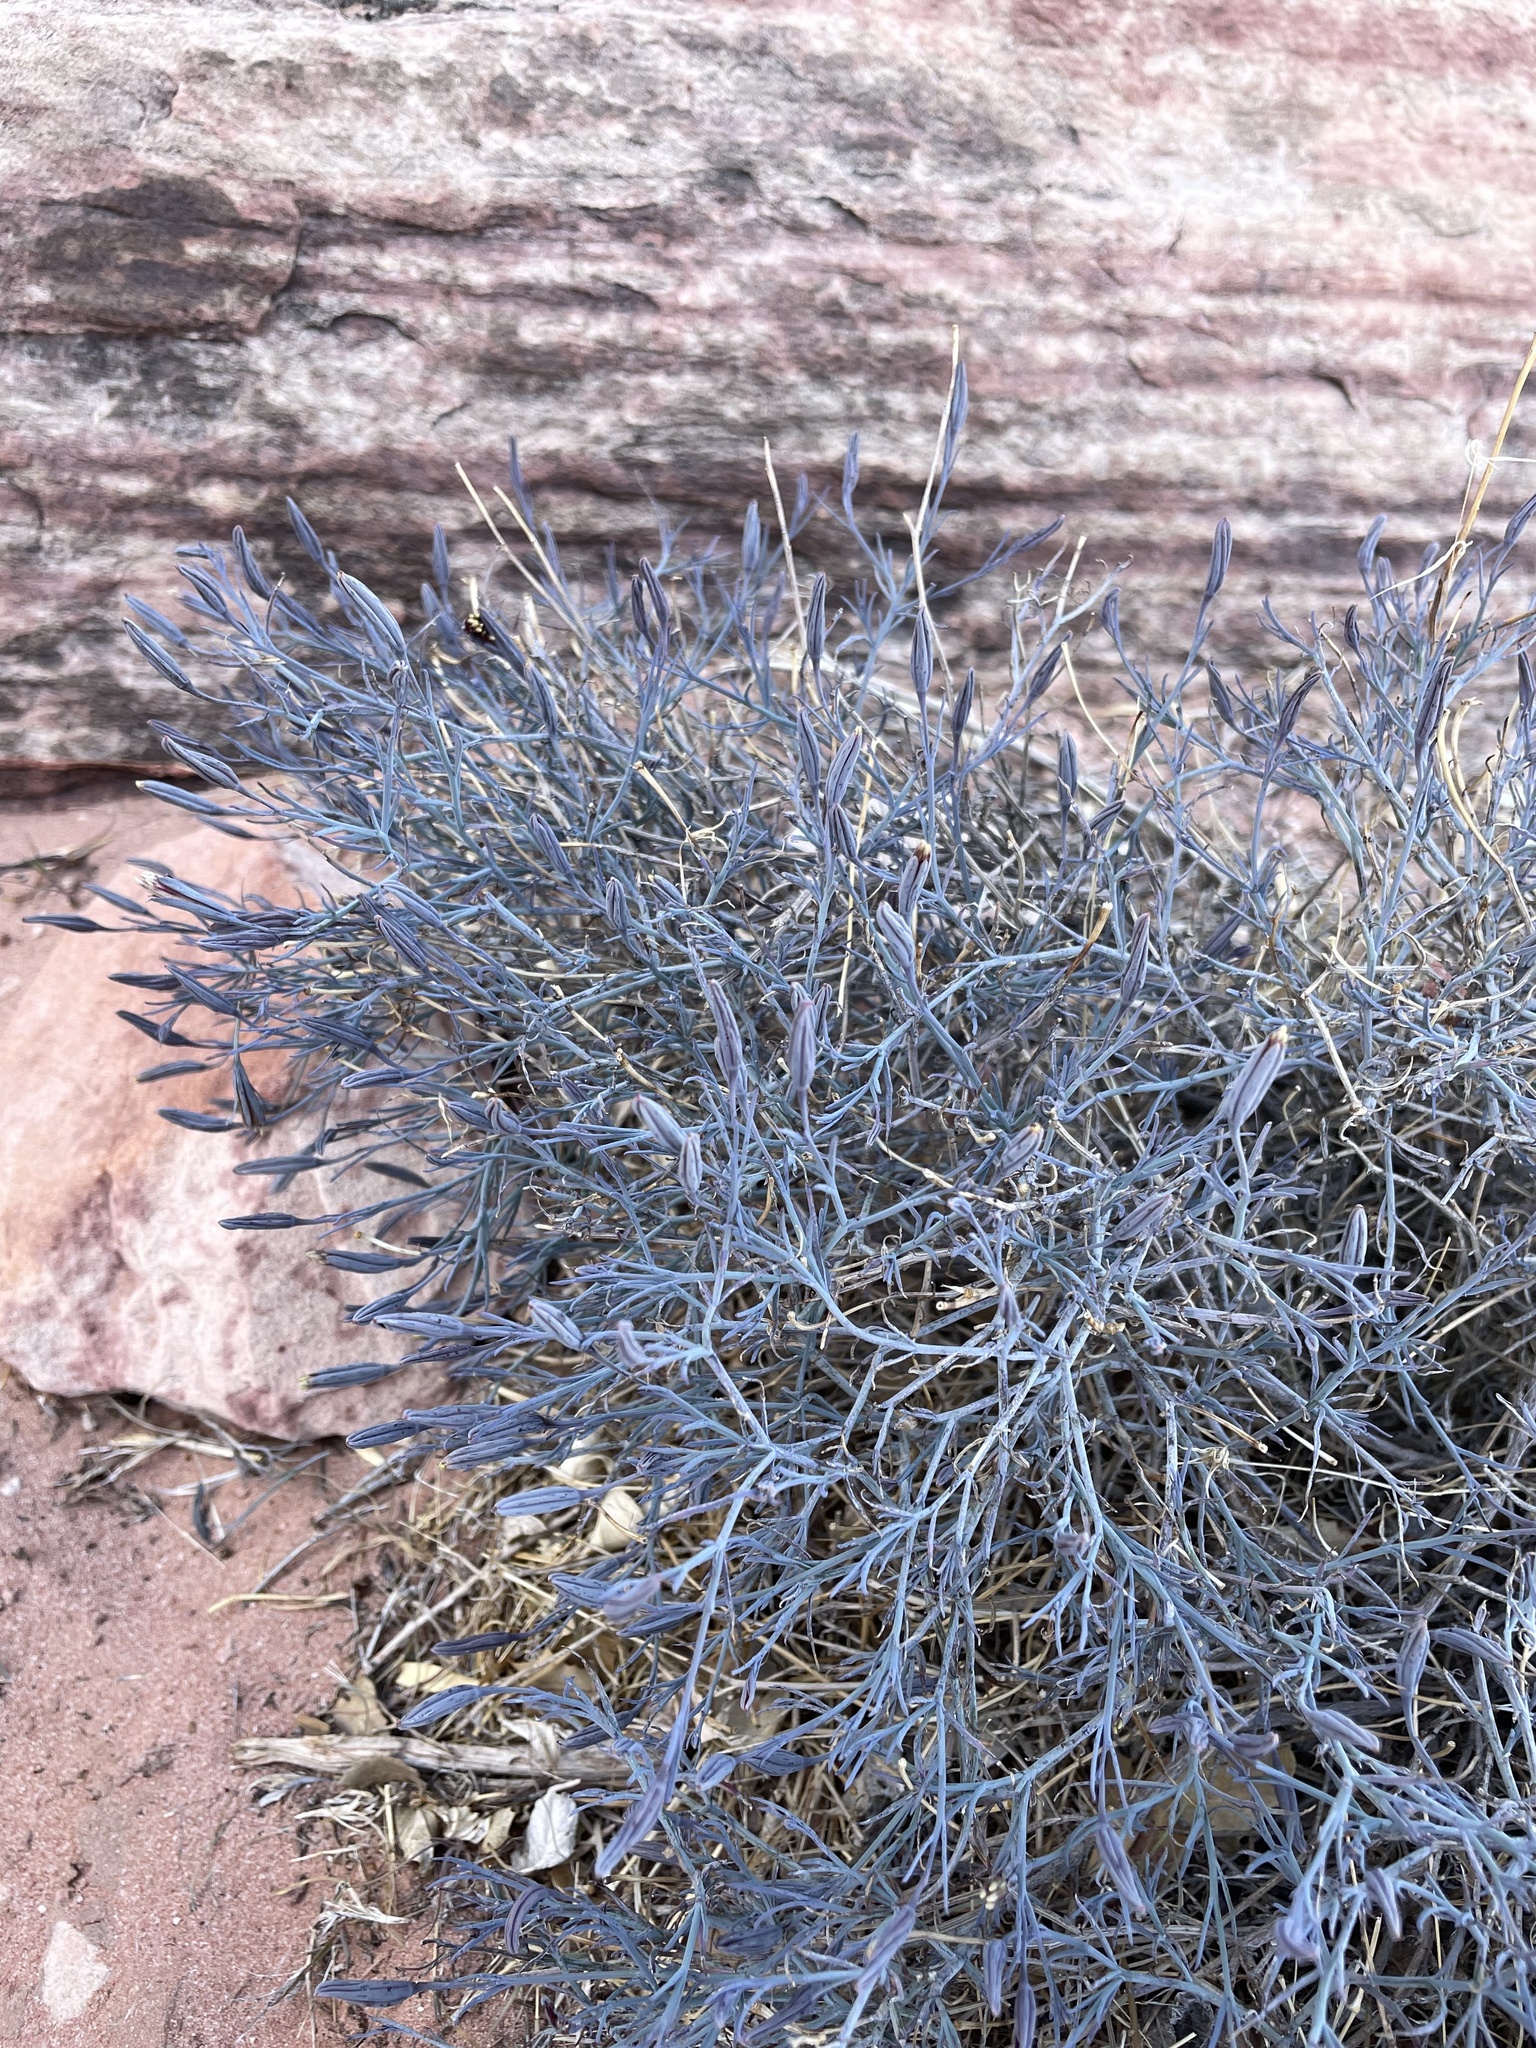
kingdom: Plantae
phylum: Tracheophyta
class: Magnoliopsida
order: Asterales
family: Asteraceae
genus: Porophyllum
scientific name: Porophyllum gracile
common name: Odora
